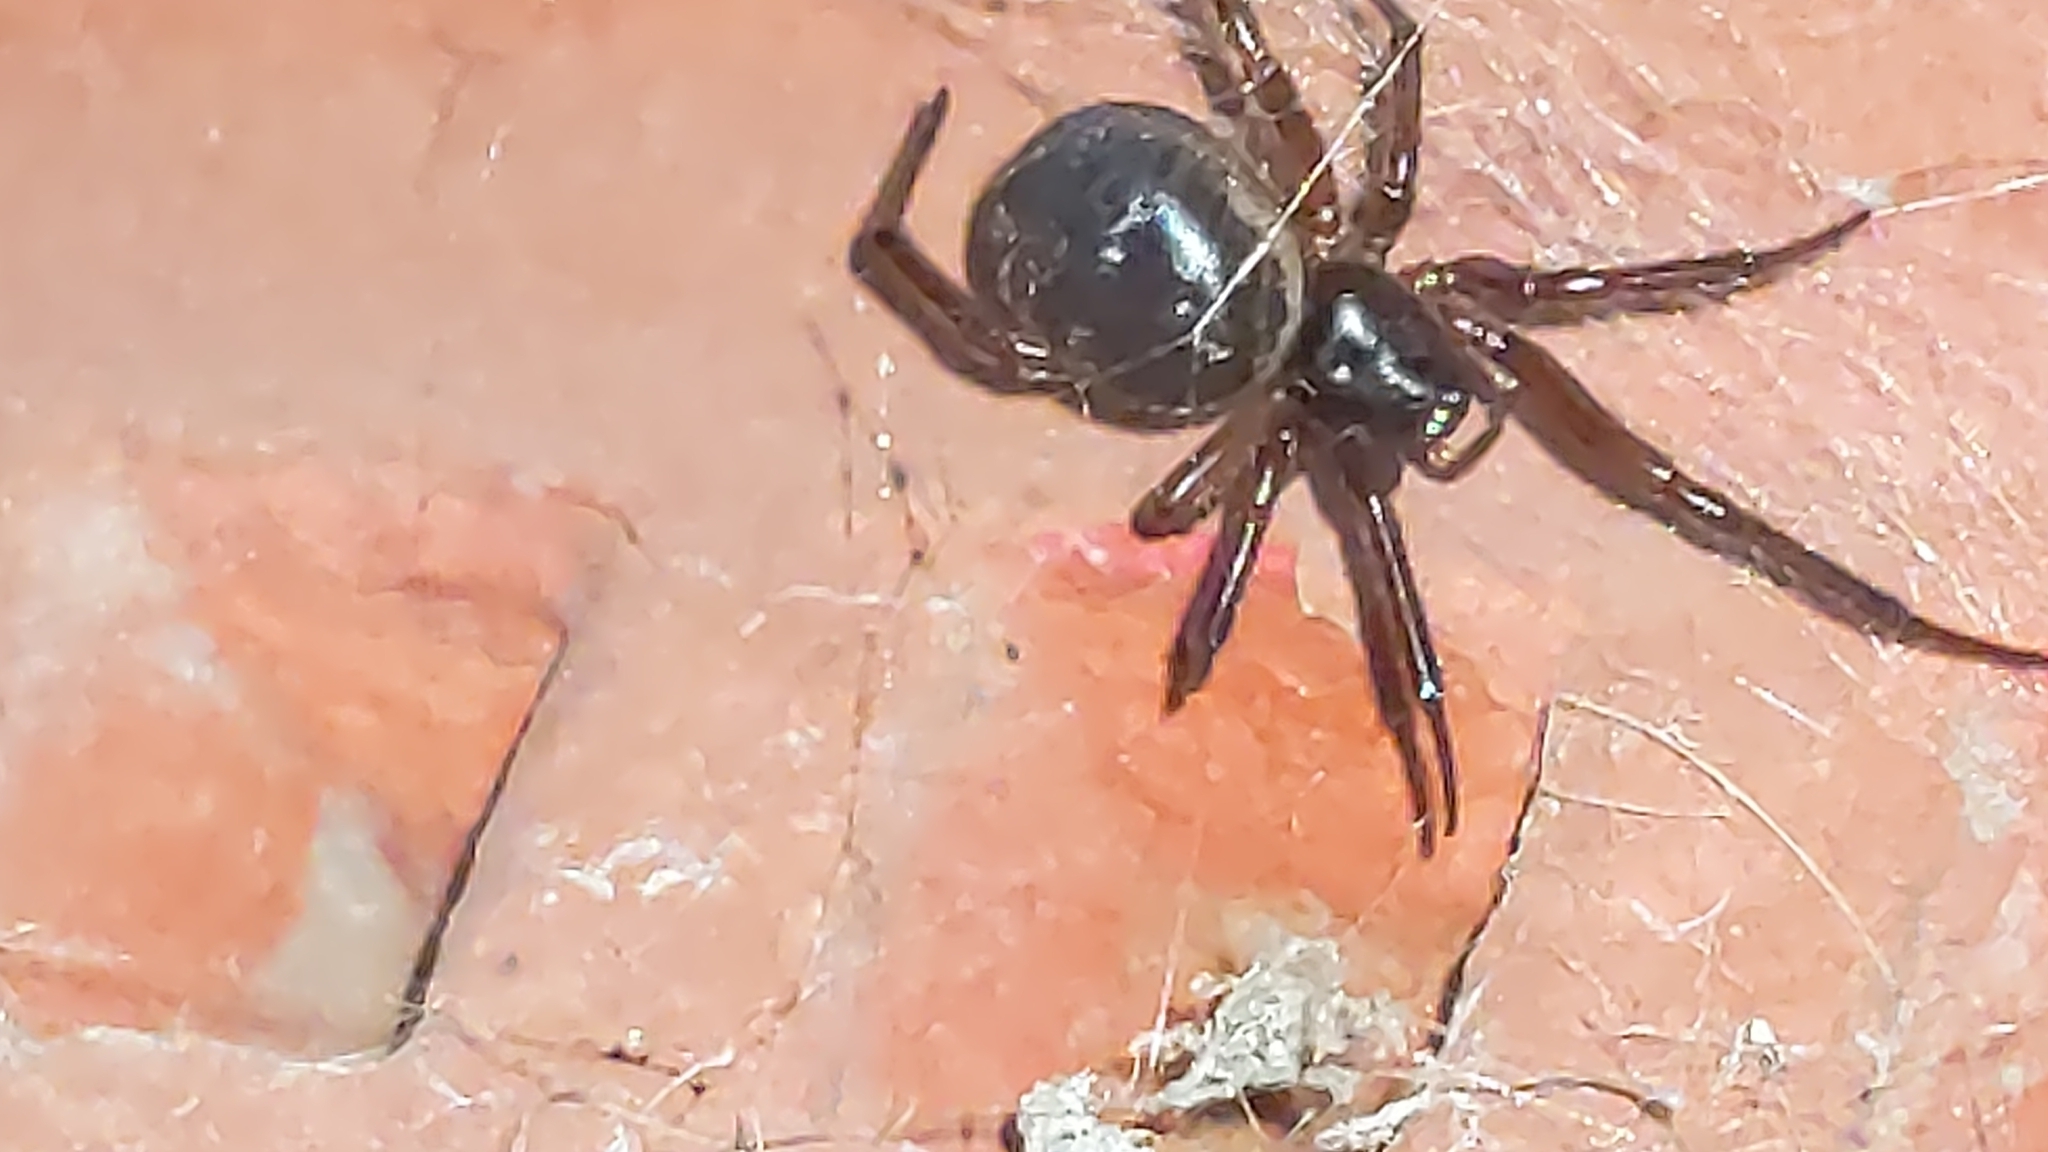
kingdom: Animalia
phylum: Arthropoda
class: Arachnida
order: Araneae
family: Theridiidae
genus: Steatoda
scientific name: Steatoda nobilis
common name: Cobweb weaver
